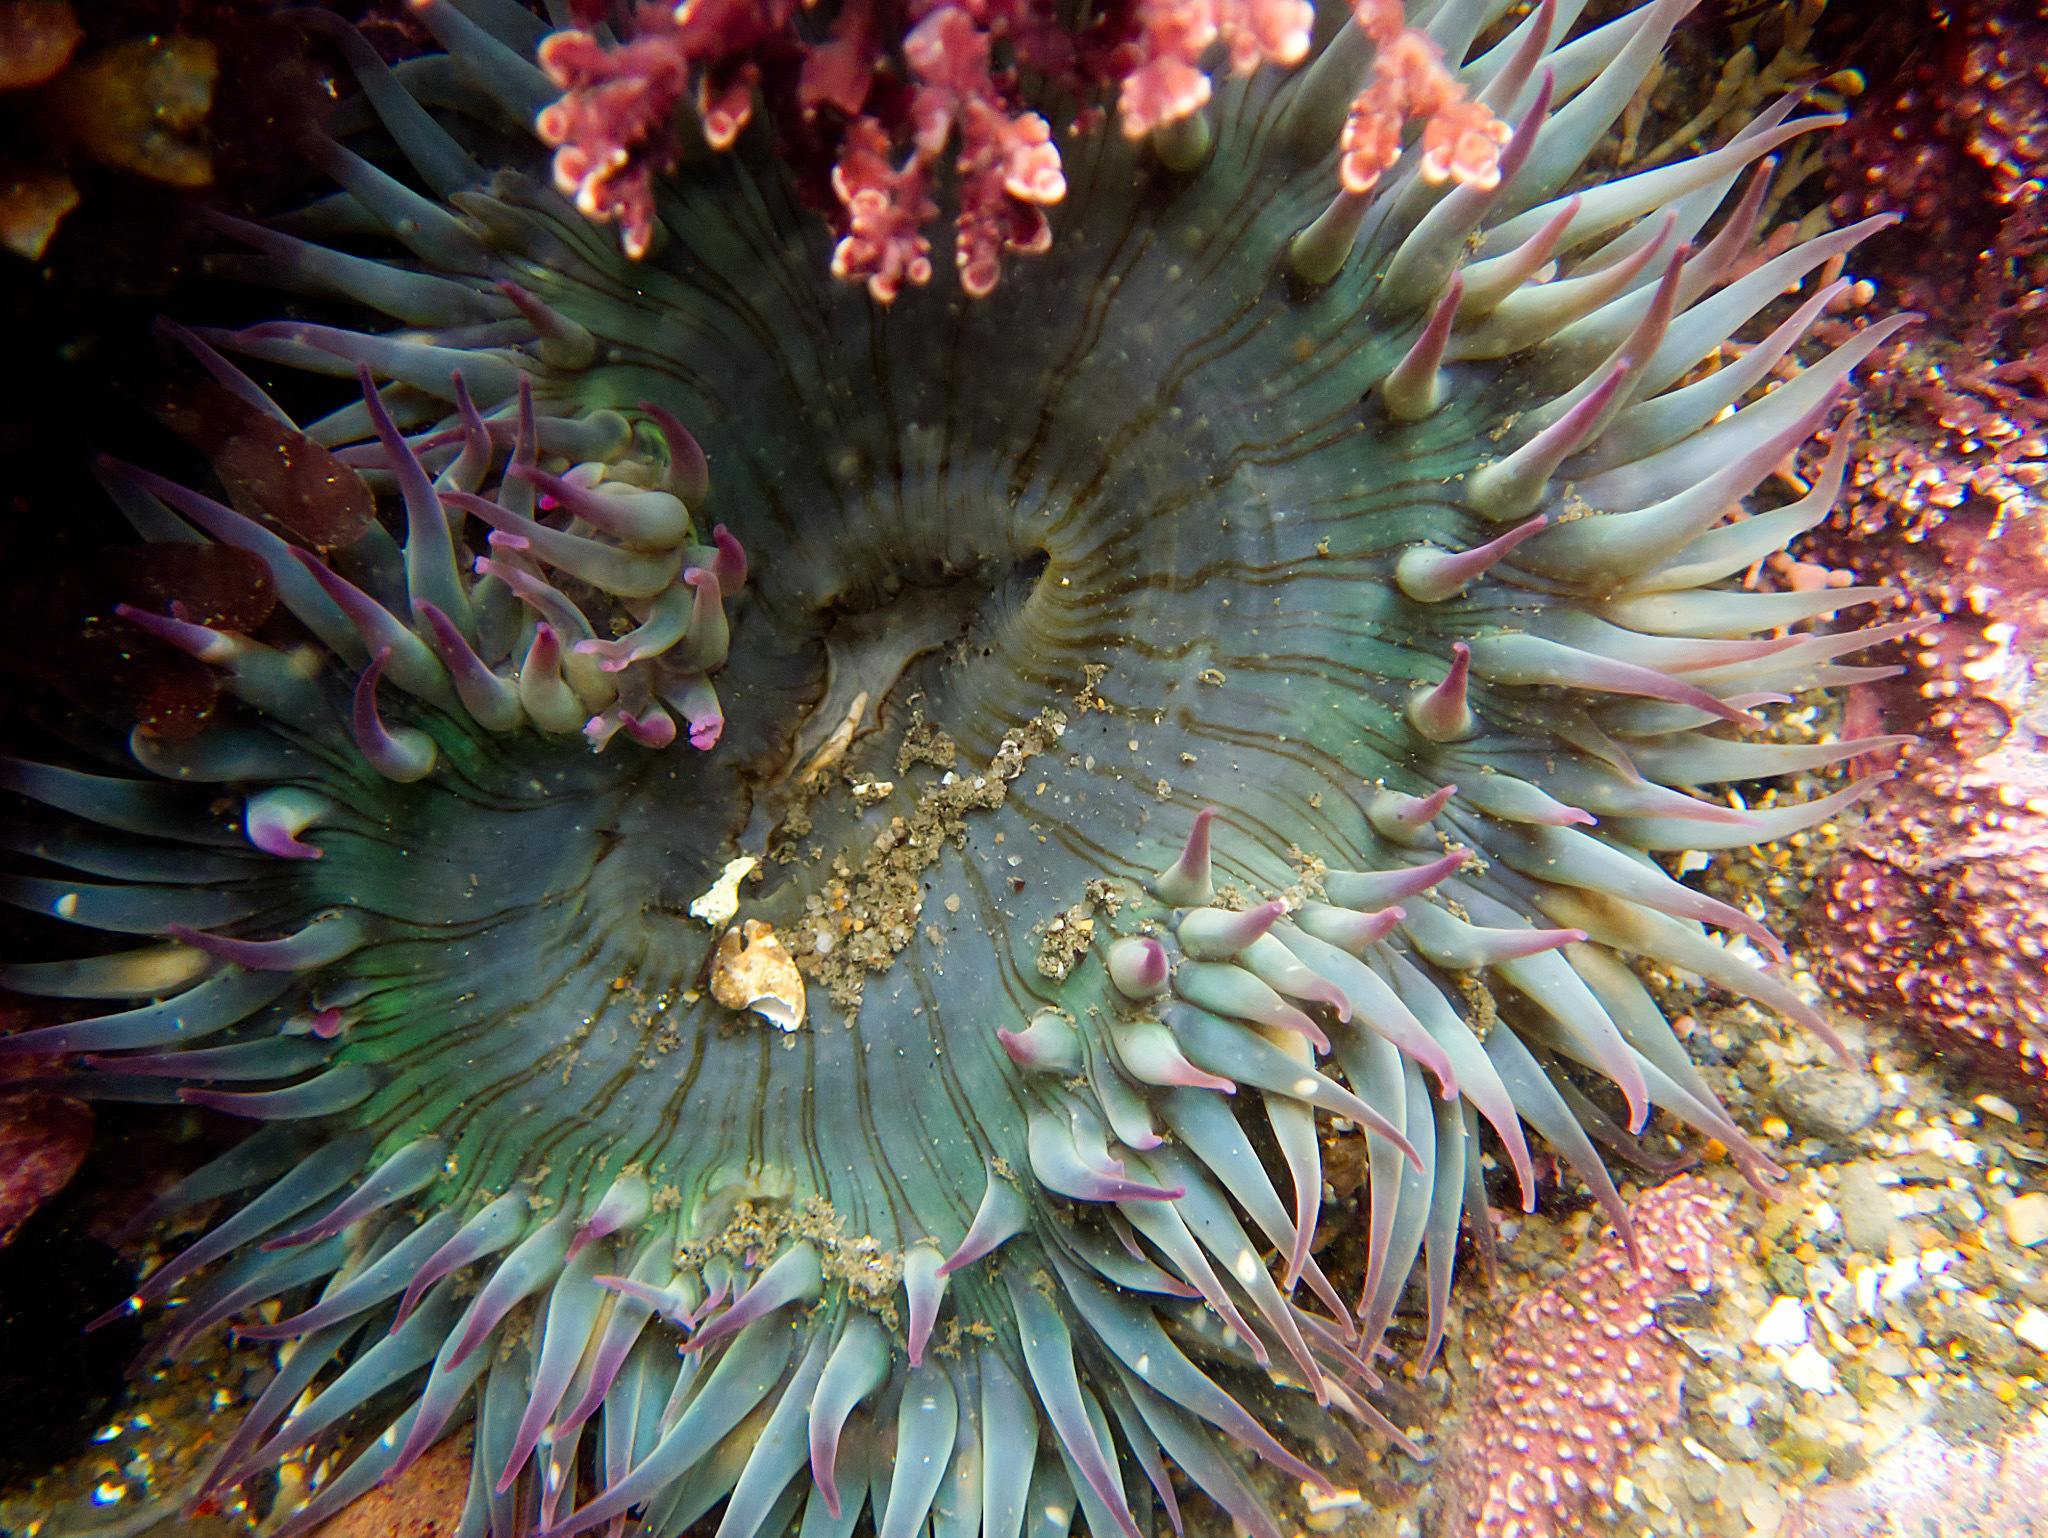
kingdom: Animalia
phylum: Cnidaria
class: Anthozoa
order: Actiniaria
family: Actiniidae
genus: Anthopleura
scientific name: Anthopleura sola
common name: Sun anemone
